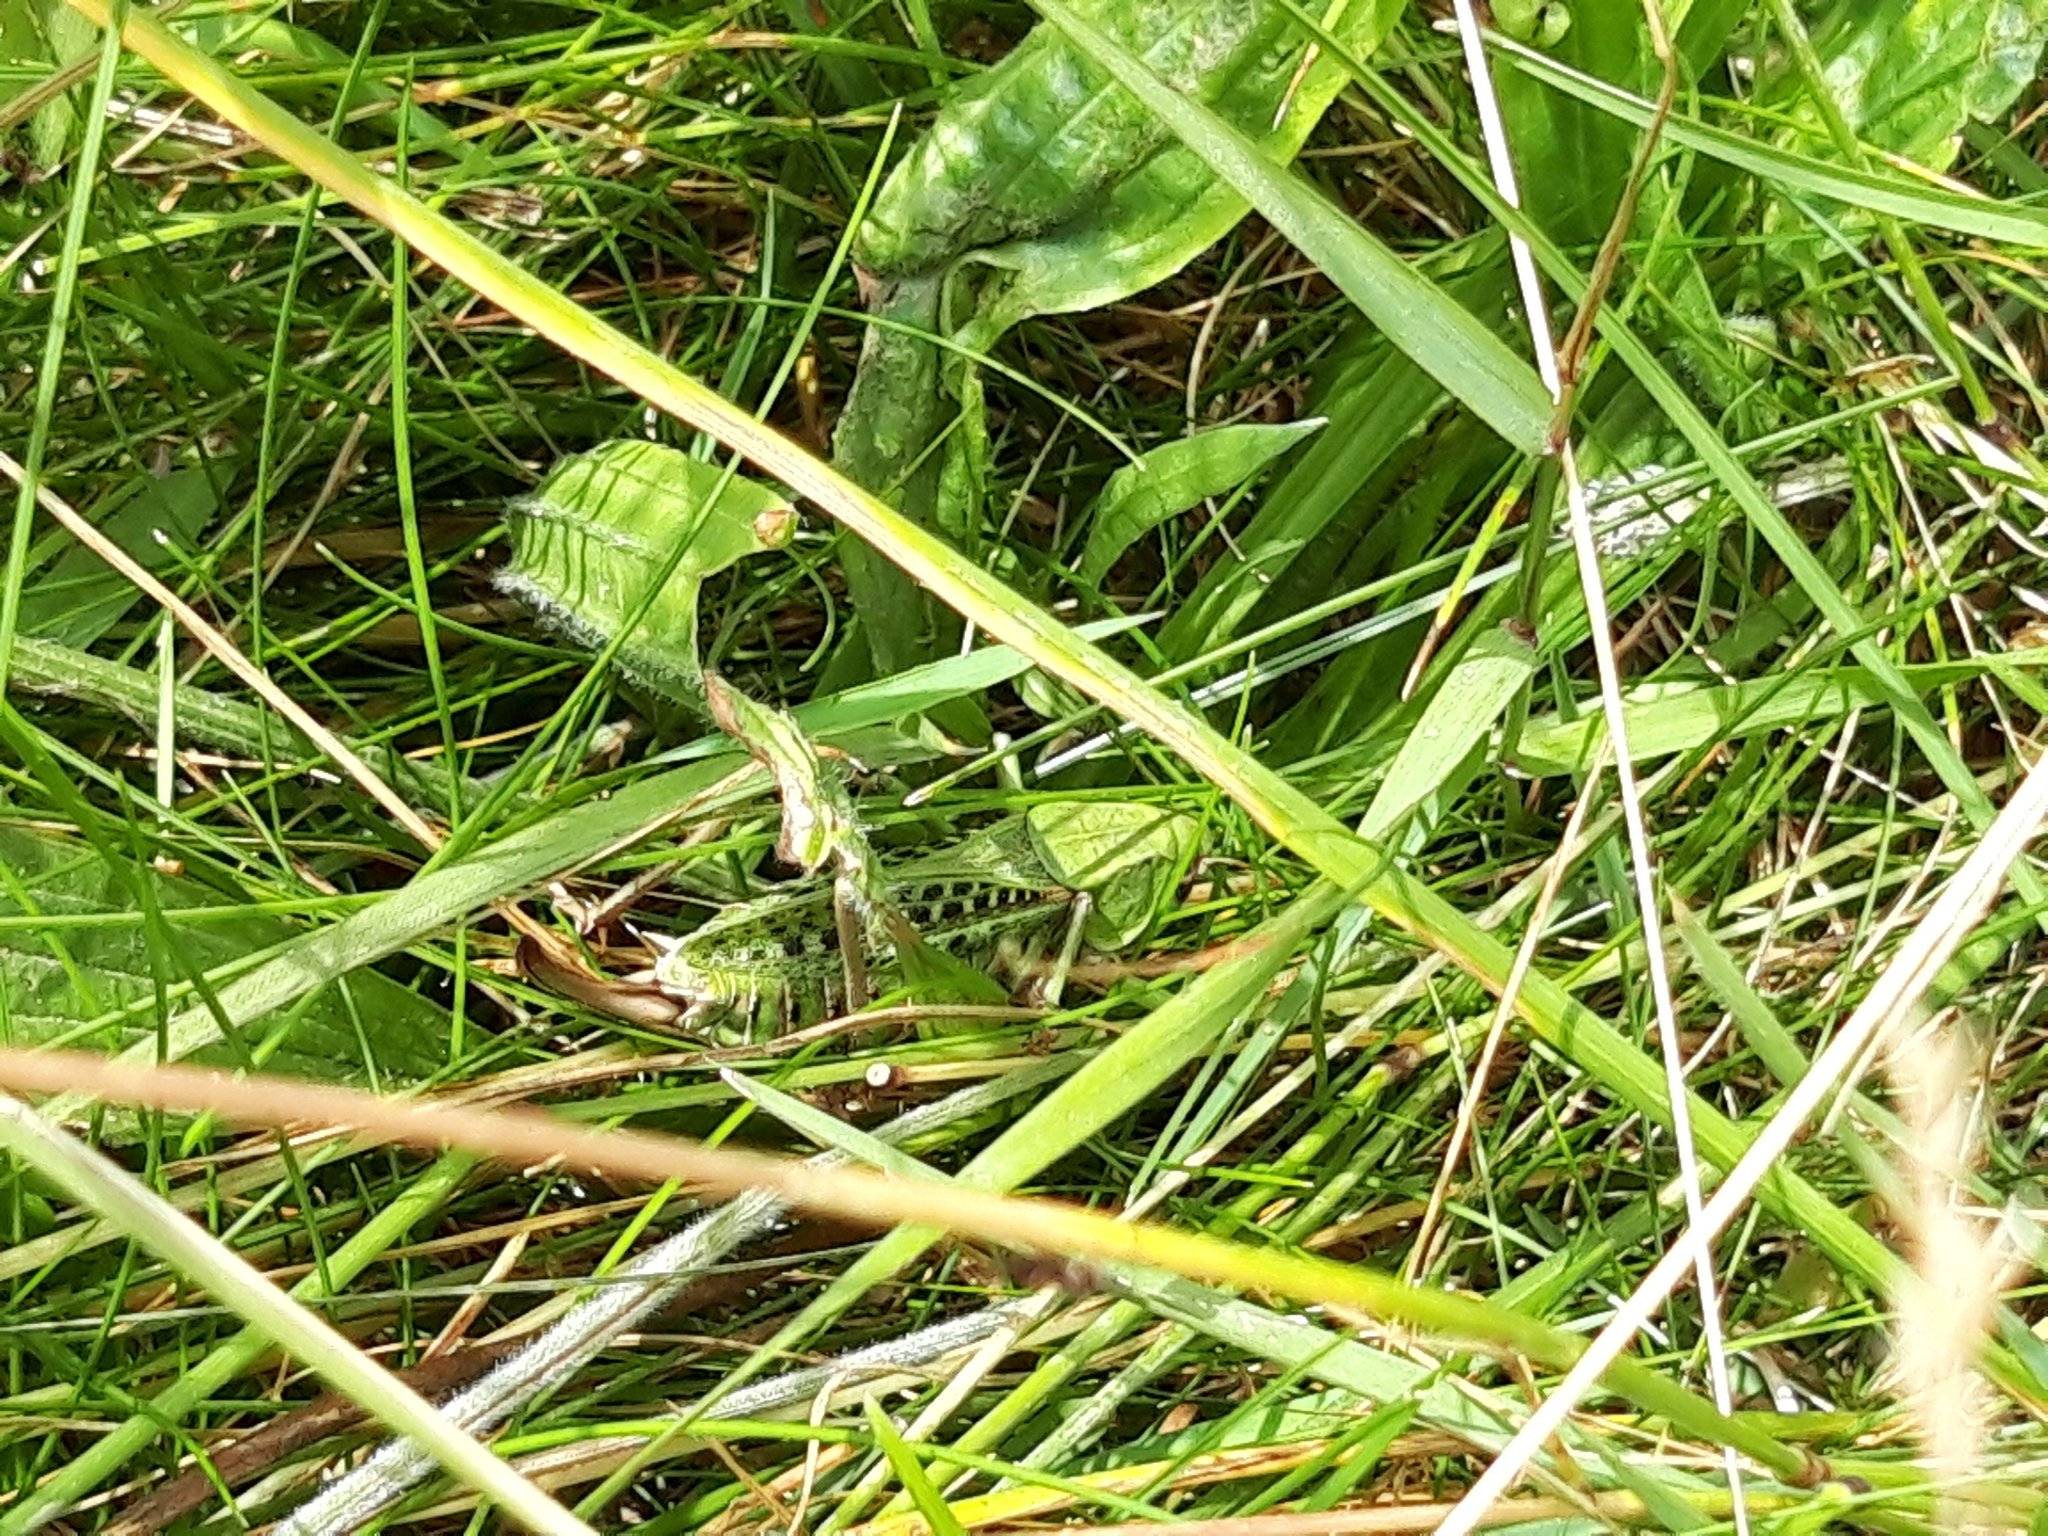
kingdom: Animalia
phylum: Arthropoda
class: Insecta
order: Orthoptera
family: Tettigoniidae
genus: Decticus
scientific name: Decticus verrucivorus
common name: Wart-biter
